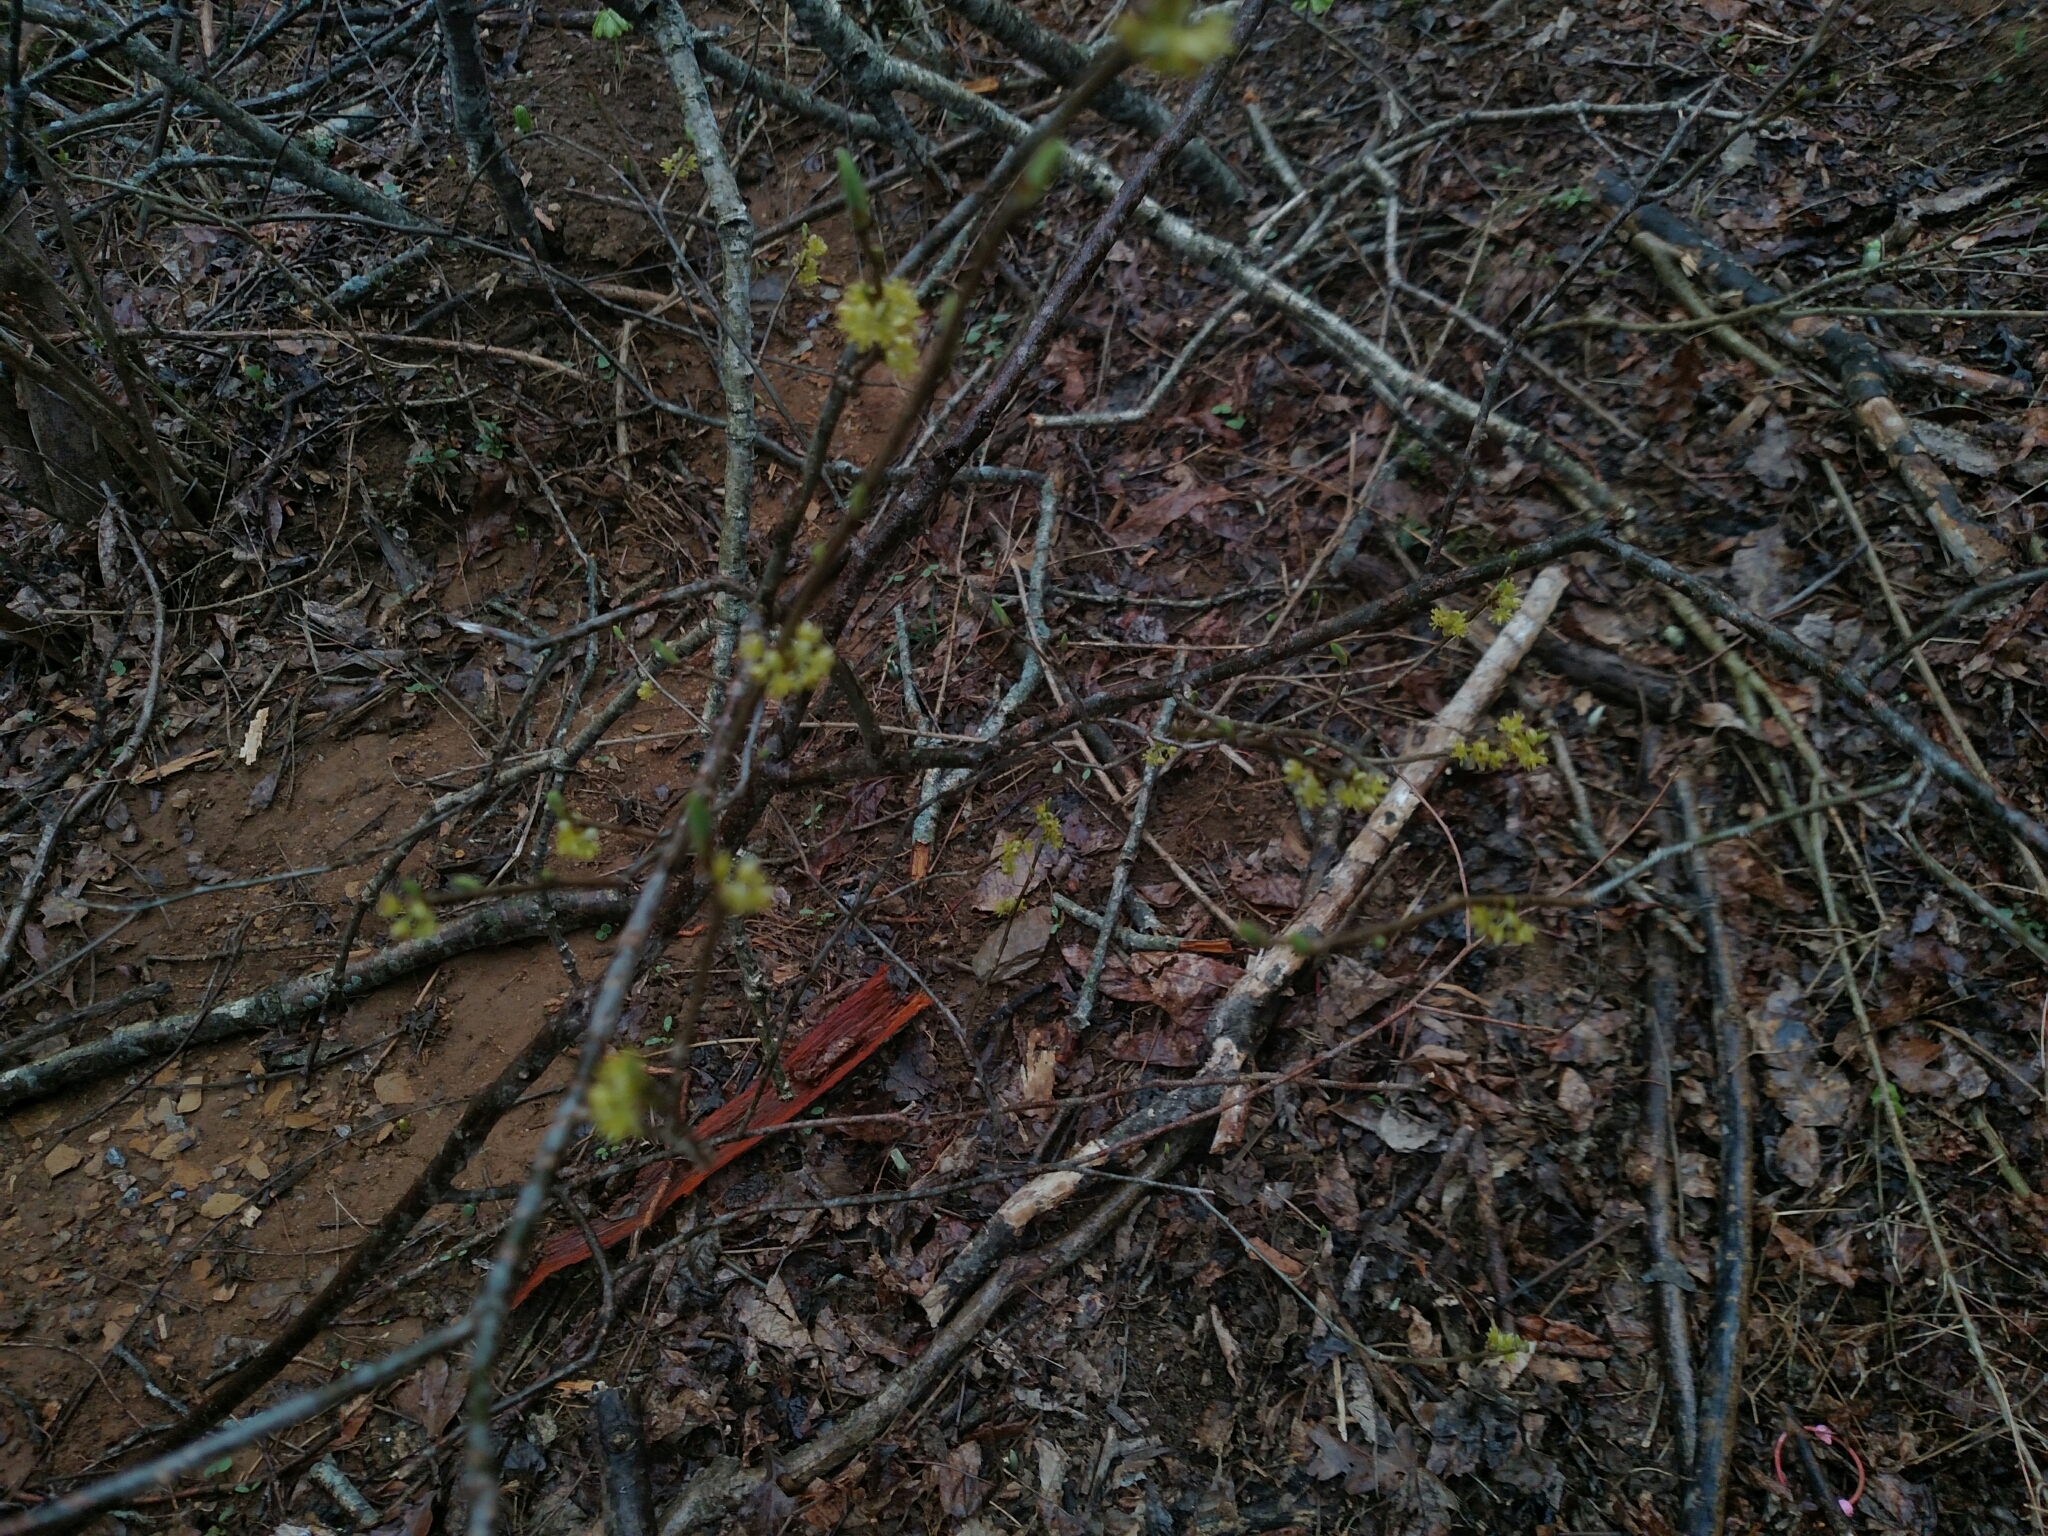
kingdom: Plantae
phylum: Tracheophyta
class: Magnoliopsida
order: Laurales
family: Lauraceae
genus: Lindera
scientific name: Lindera benzoin
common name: Spicebush
